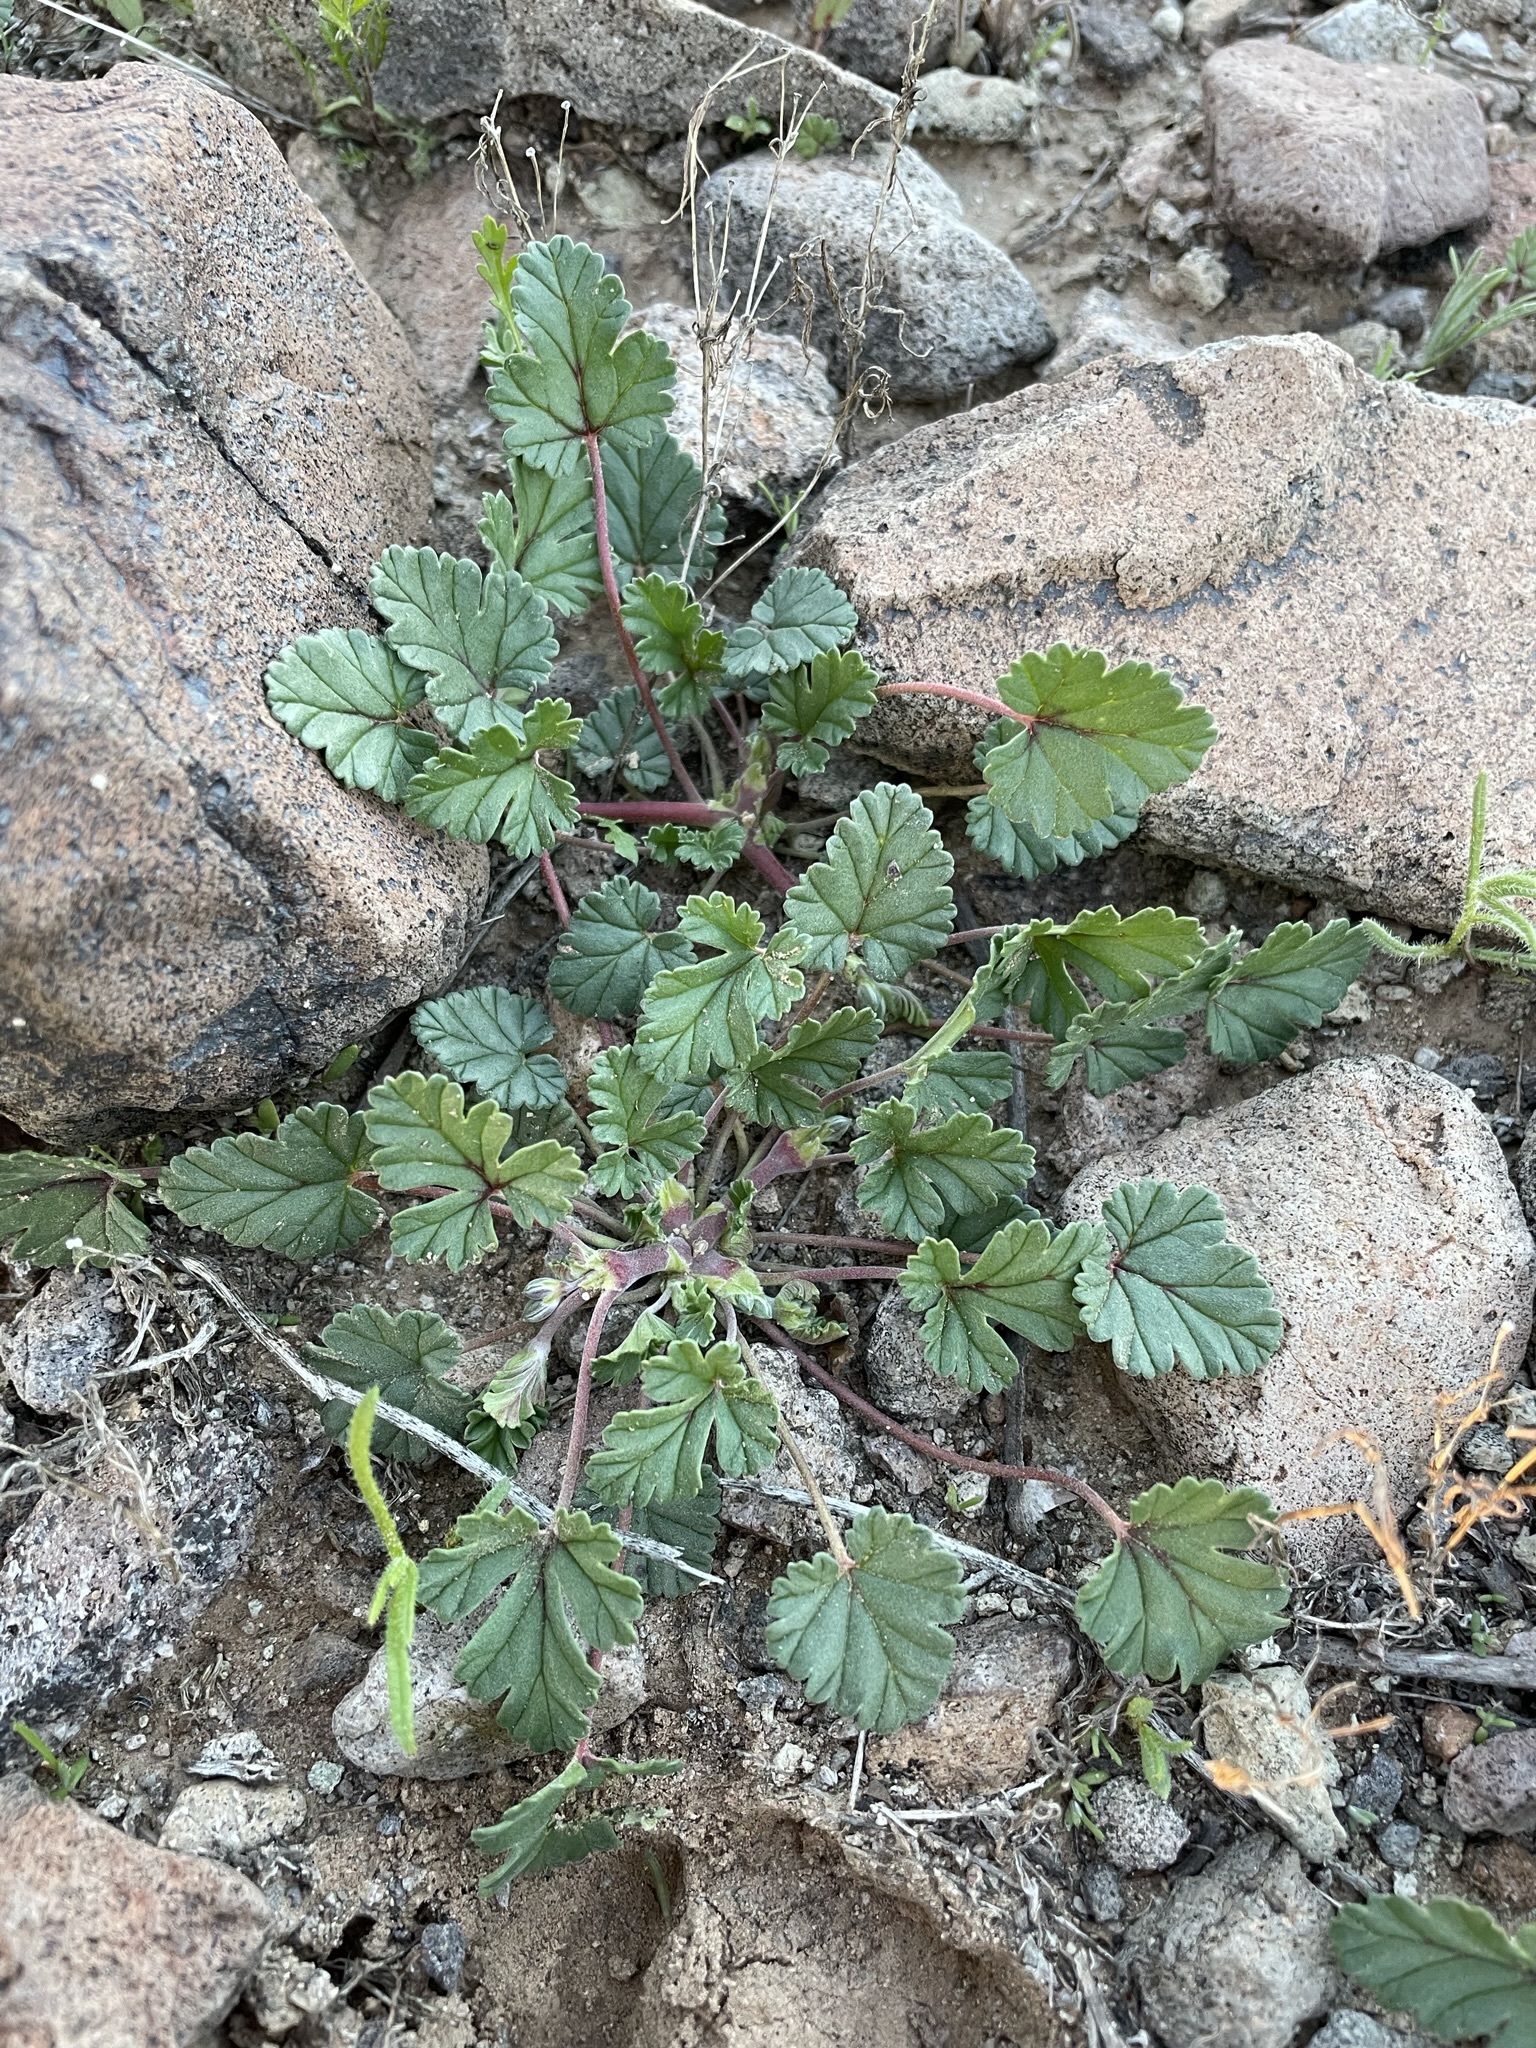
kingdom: Plantae
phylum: Tracheophyta
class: Magnoliopsida
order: Geraniales
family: Geraniaceae
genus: Erodium
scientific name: Erodium texanum
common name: Texas stork's-bill
